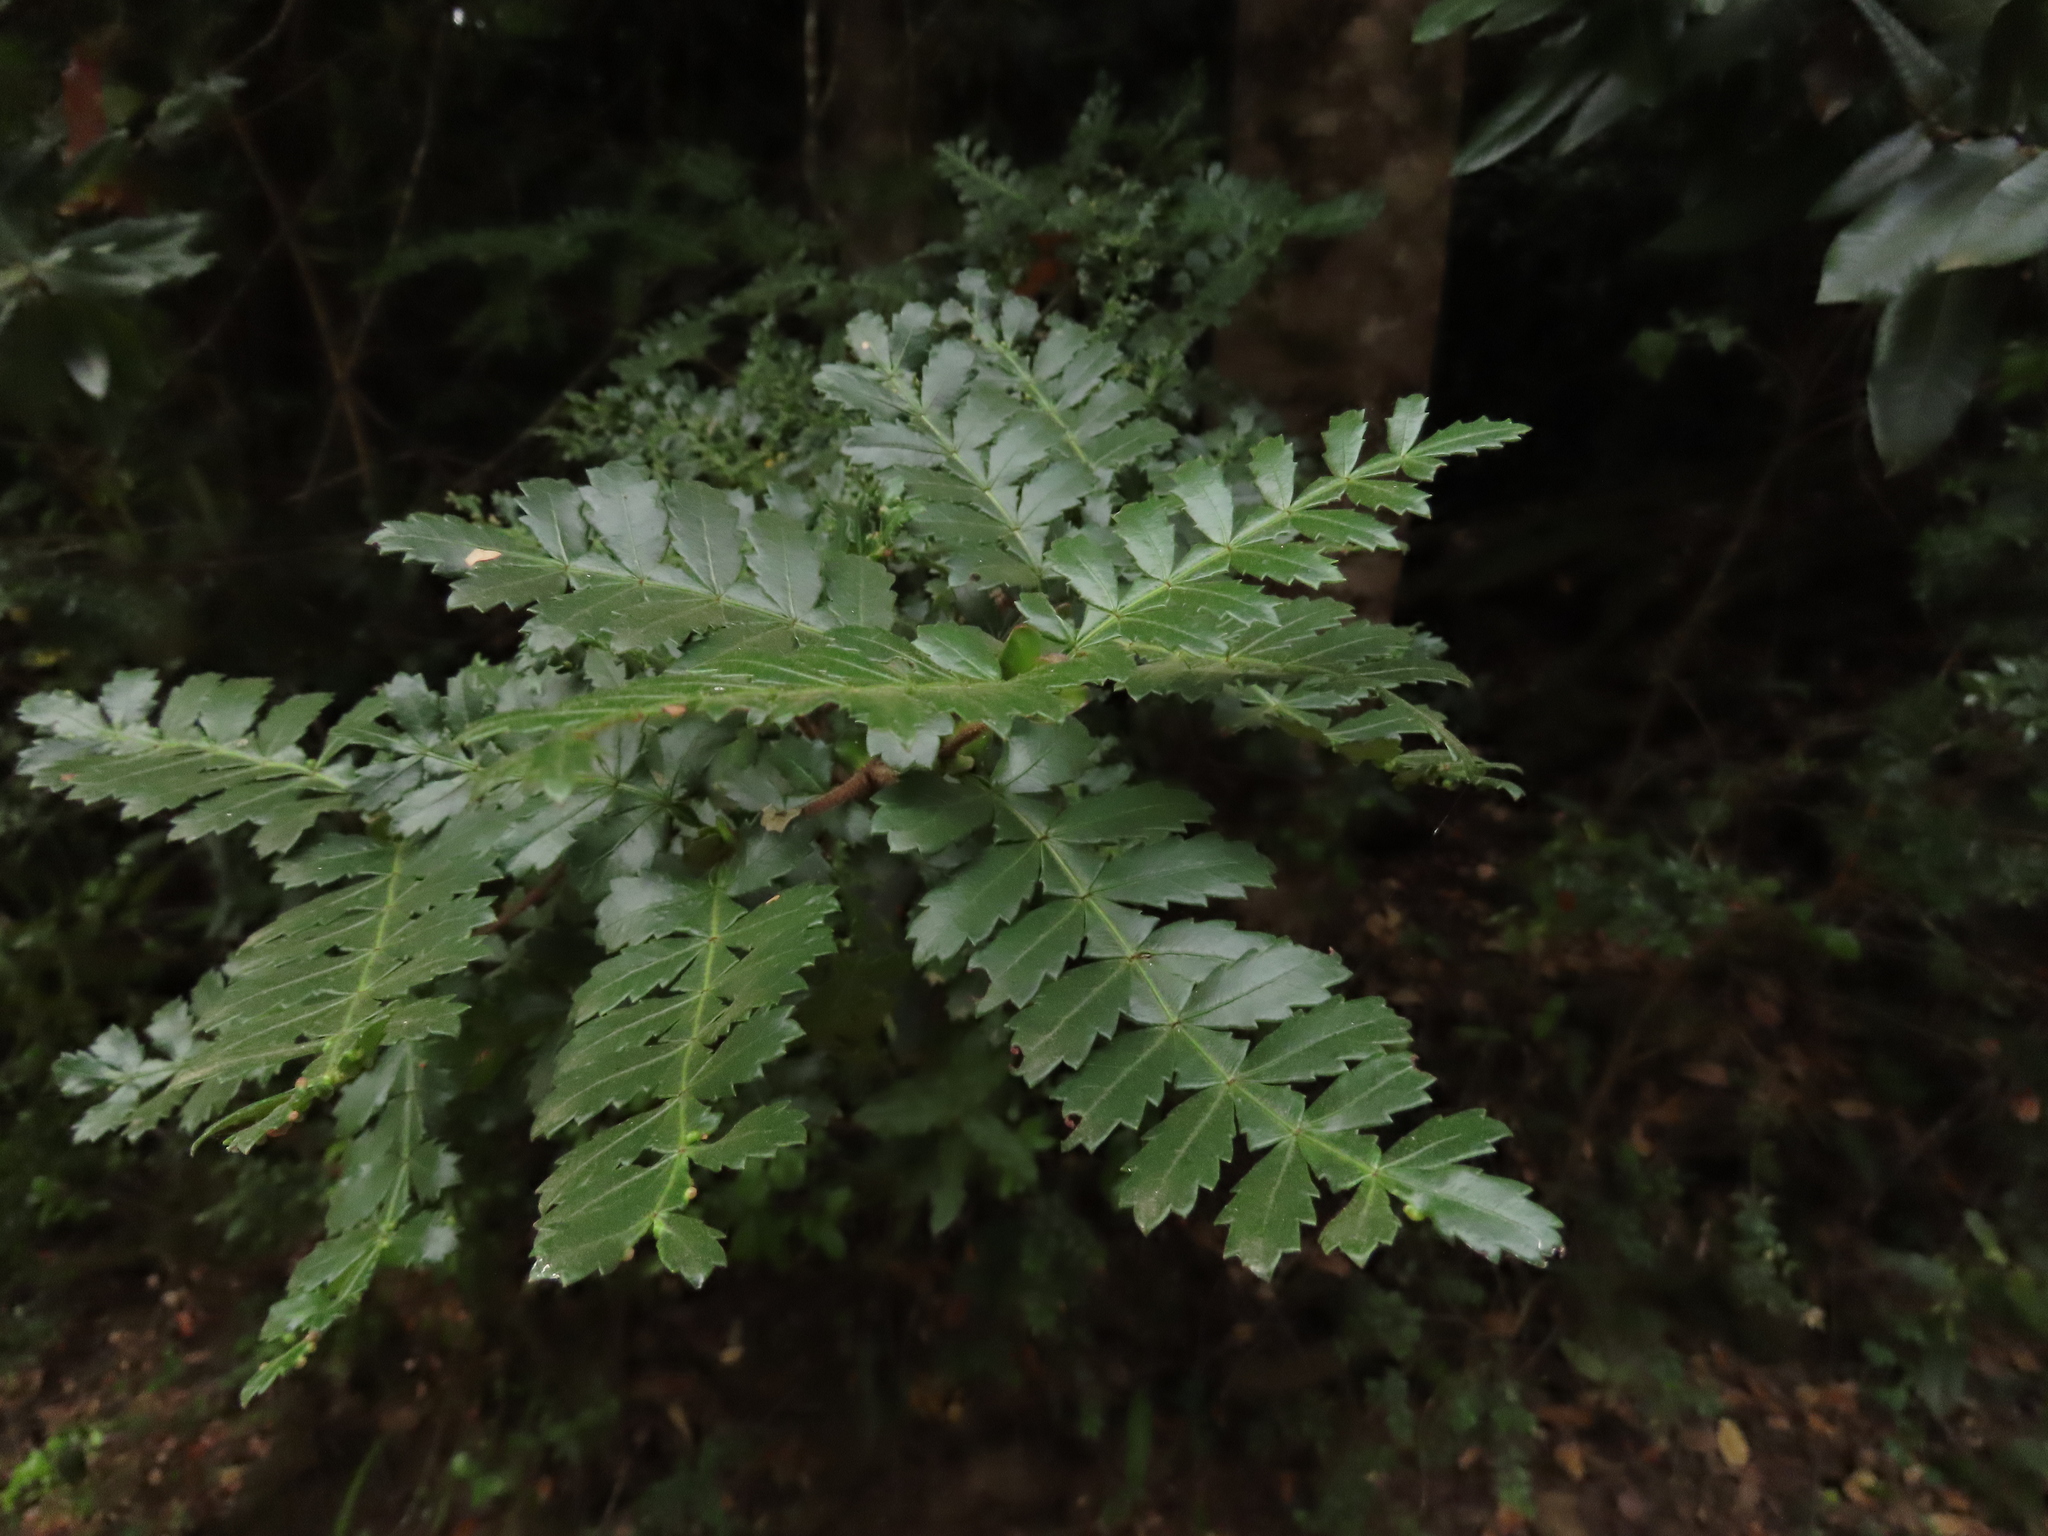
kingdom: Plantae
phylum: Tracheophyta
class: Magnoliopsida
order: Oxalidales
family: Cunoniaceae
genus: Weinmannia
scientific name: Weinmannia trichosperma
